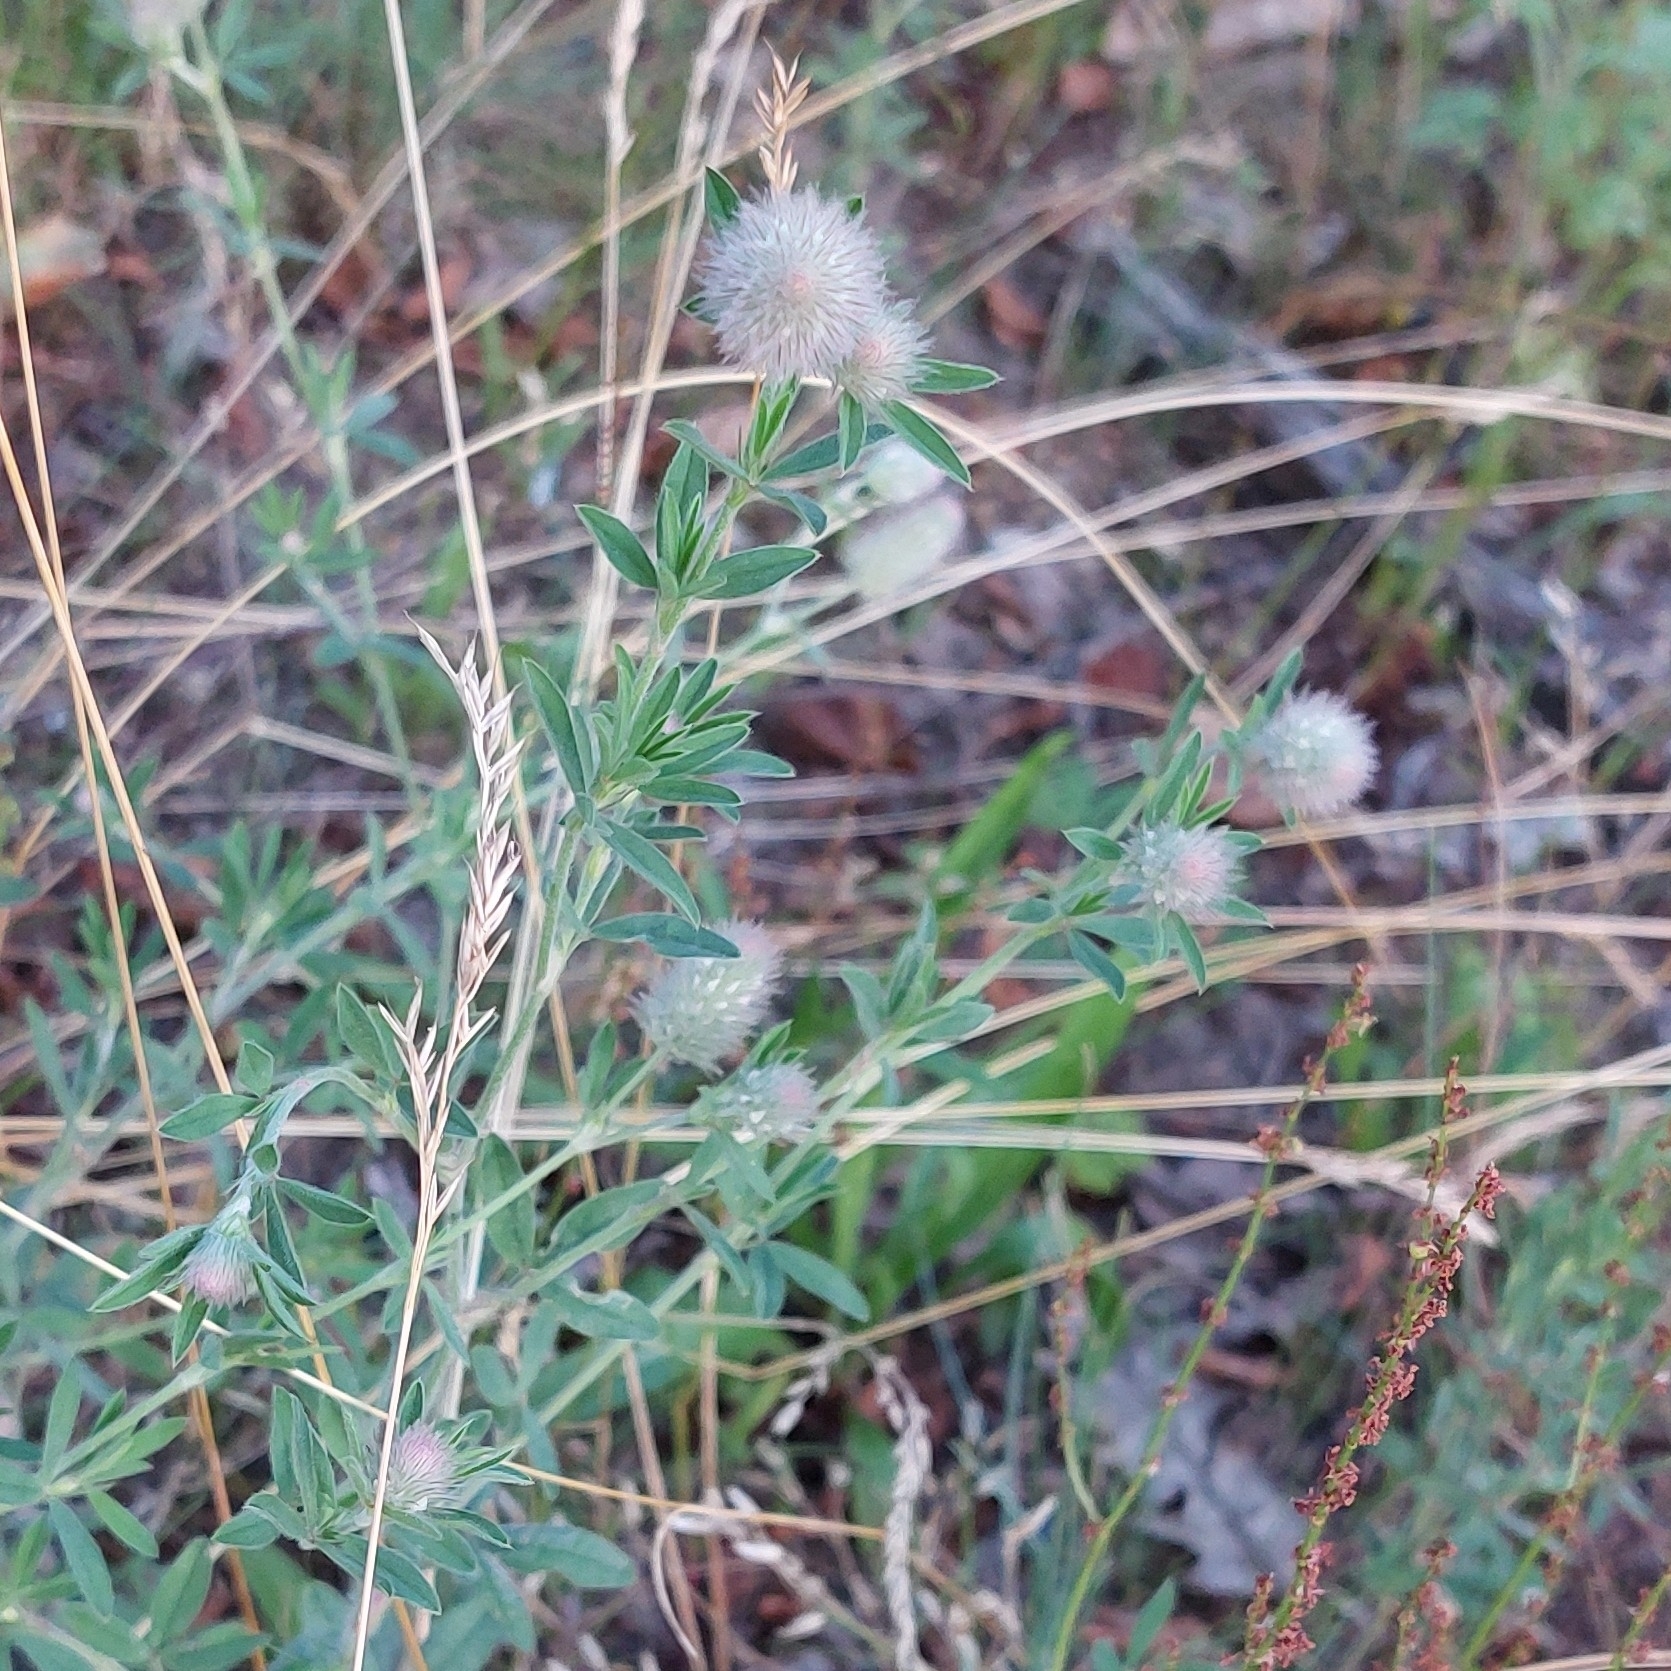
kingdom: Plantae
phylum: Tracheophyta
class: Magnoliopsida
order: Fabales
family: Fabaceae
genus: Trifolium
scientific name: Trifolium arvense
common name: Hare's-foot clover
